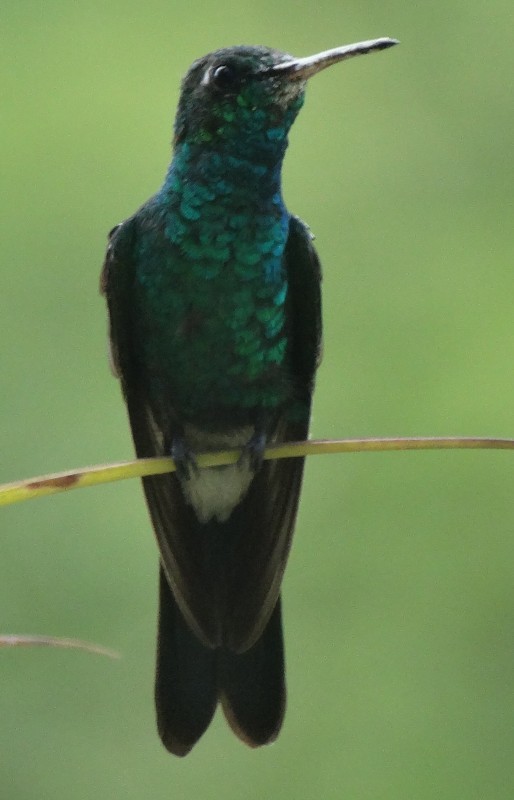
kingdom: Animalia
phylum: Chordata
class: Aves
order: Apodiformes
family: Trochilidae
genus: Riccordia
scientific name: Riccordia ricordii
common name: Cuban emerald
